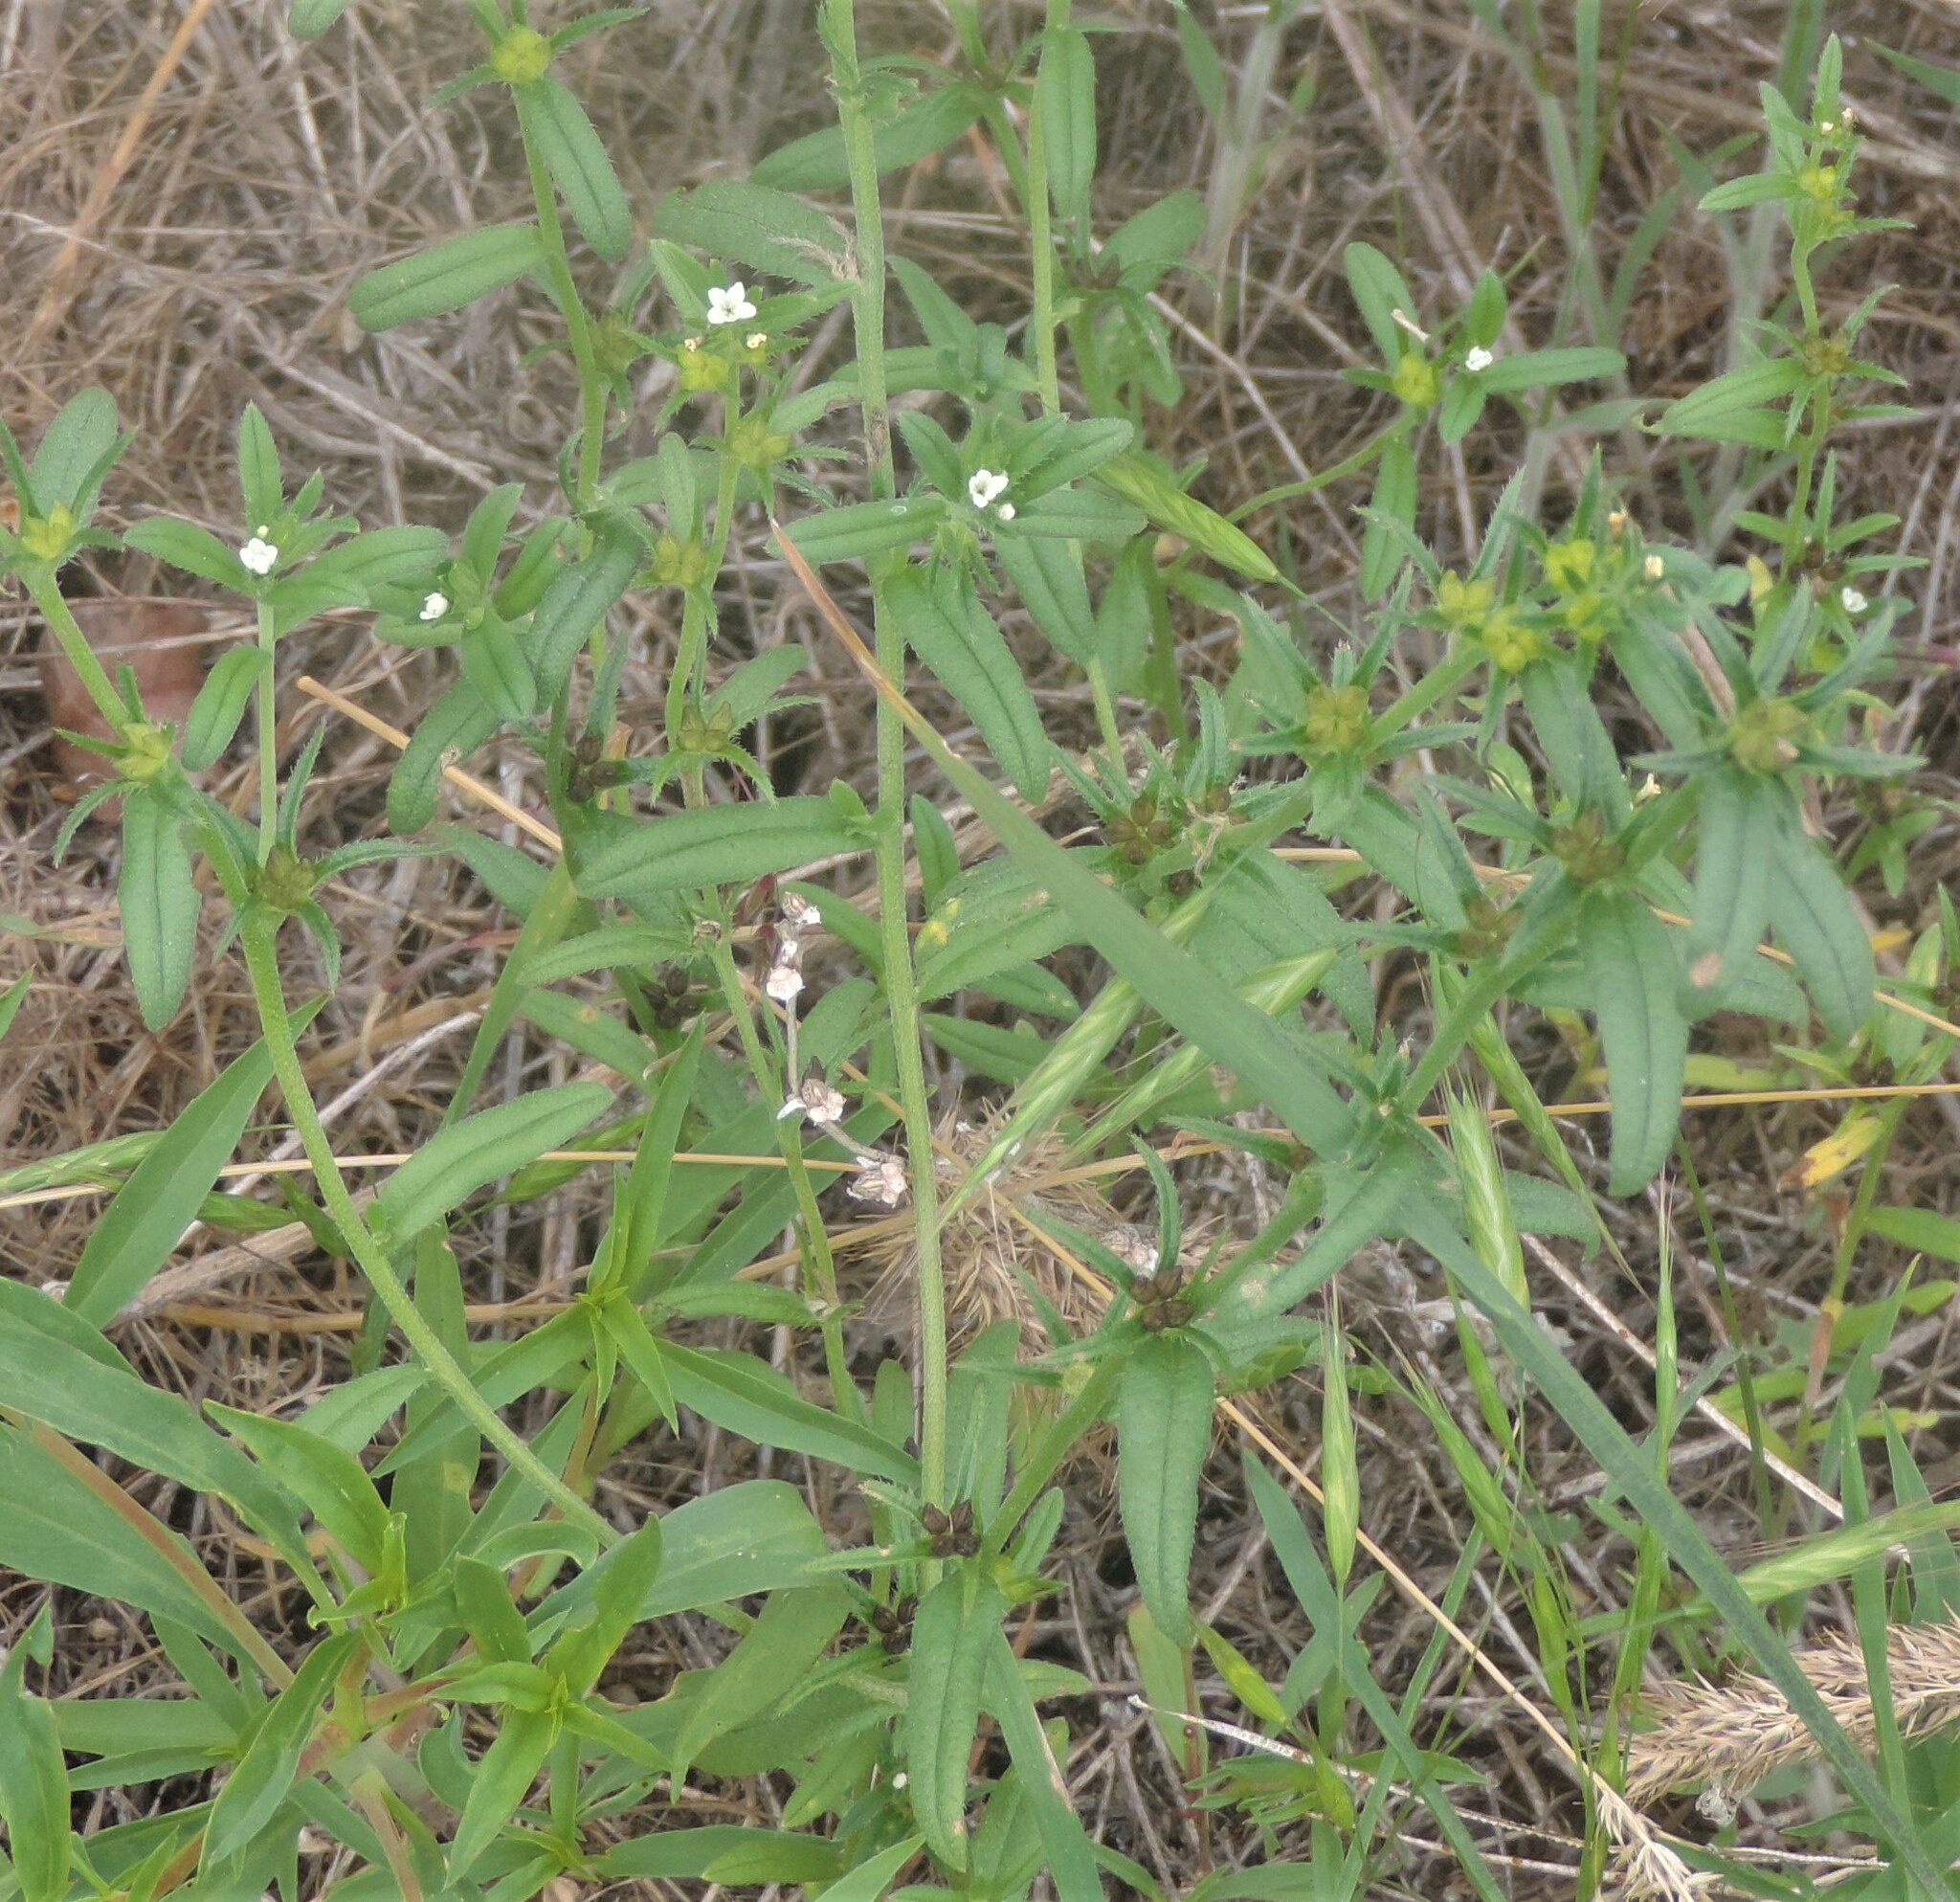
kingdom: Plantae
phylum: Tracheophyta
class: Magnoliopsida
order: Boraginales
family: Boraginaceae
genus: Buglossoides
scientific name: Buglossoides arvensis
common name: Corn gromwell
